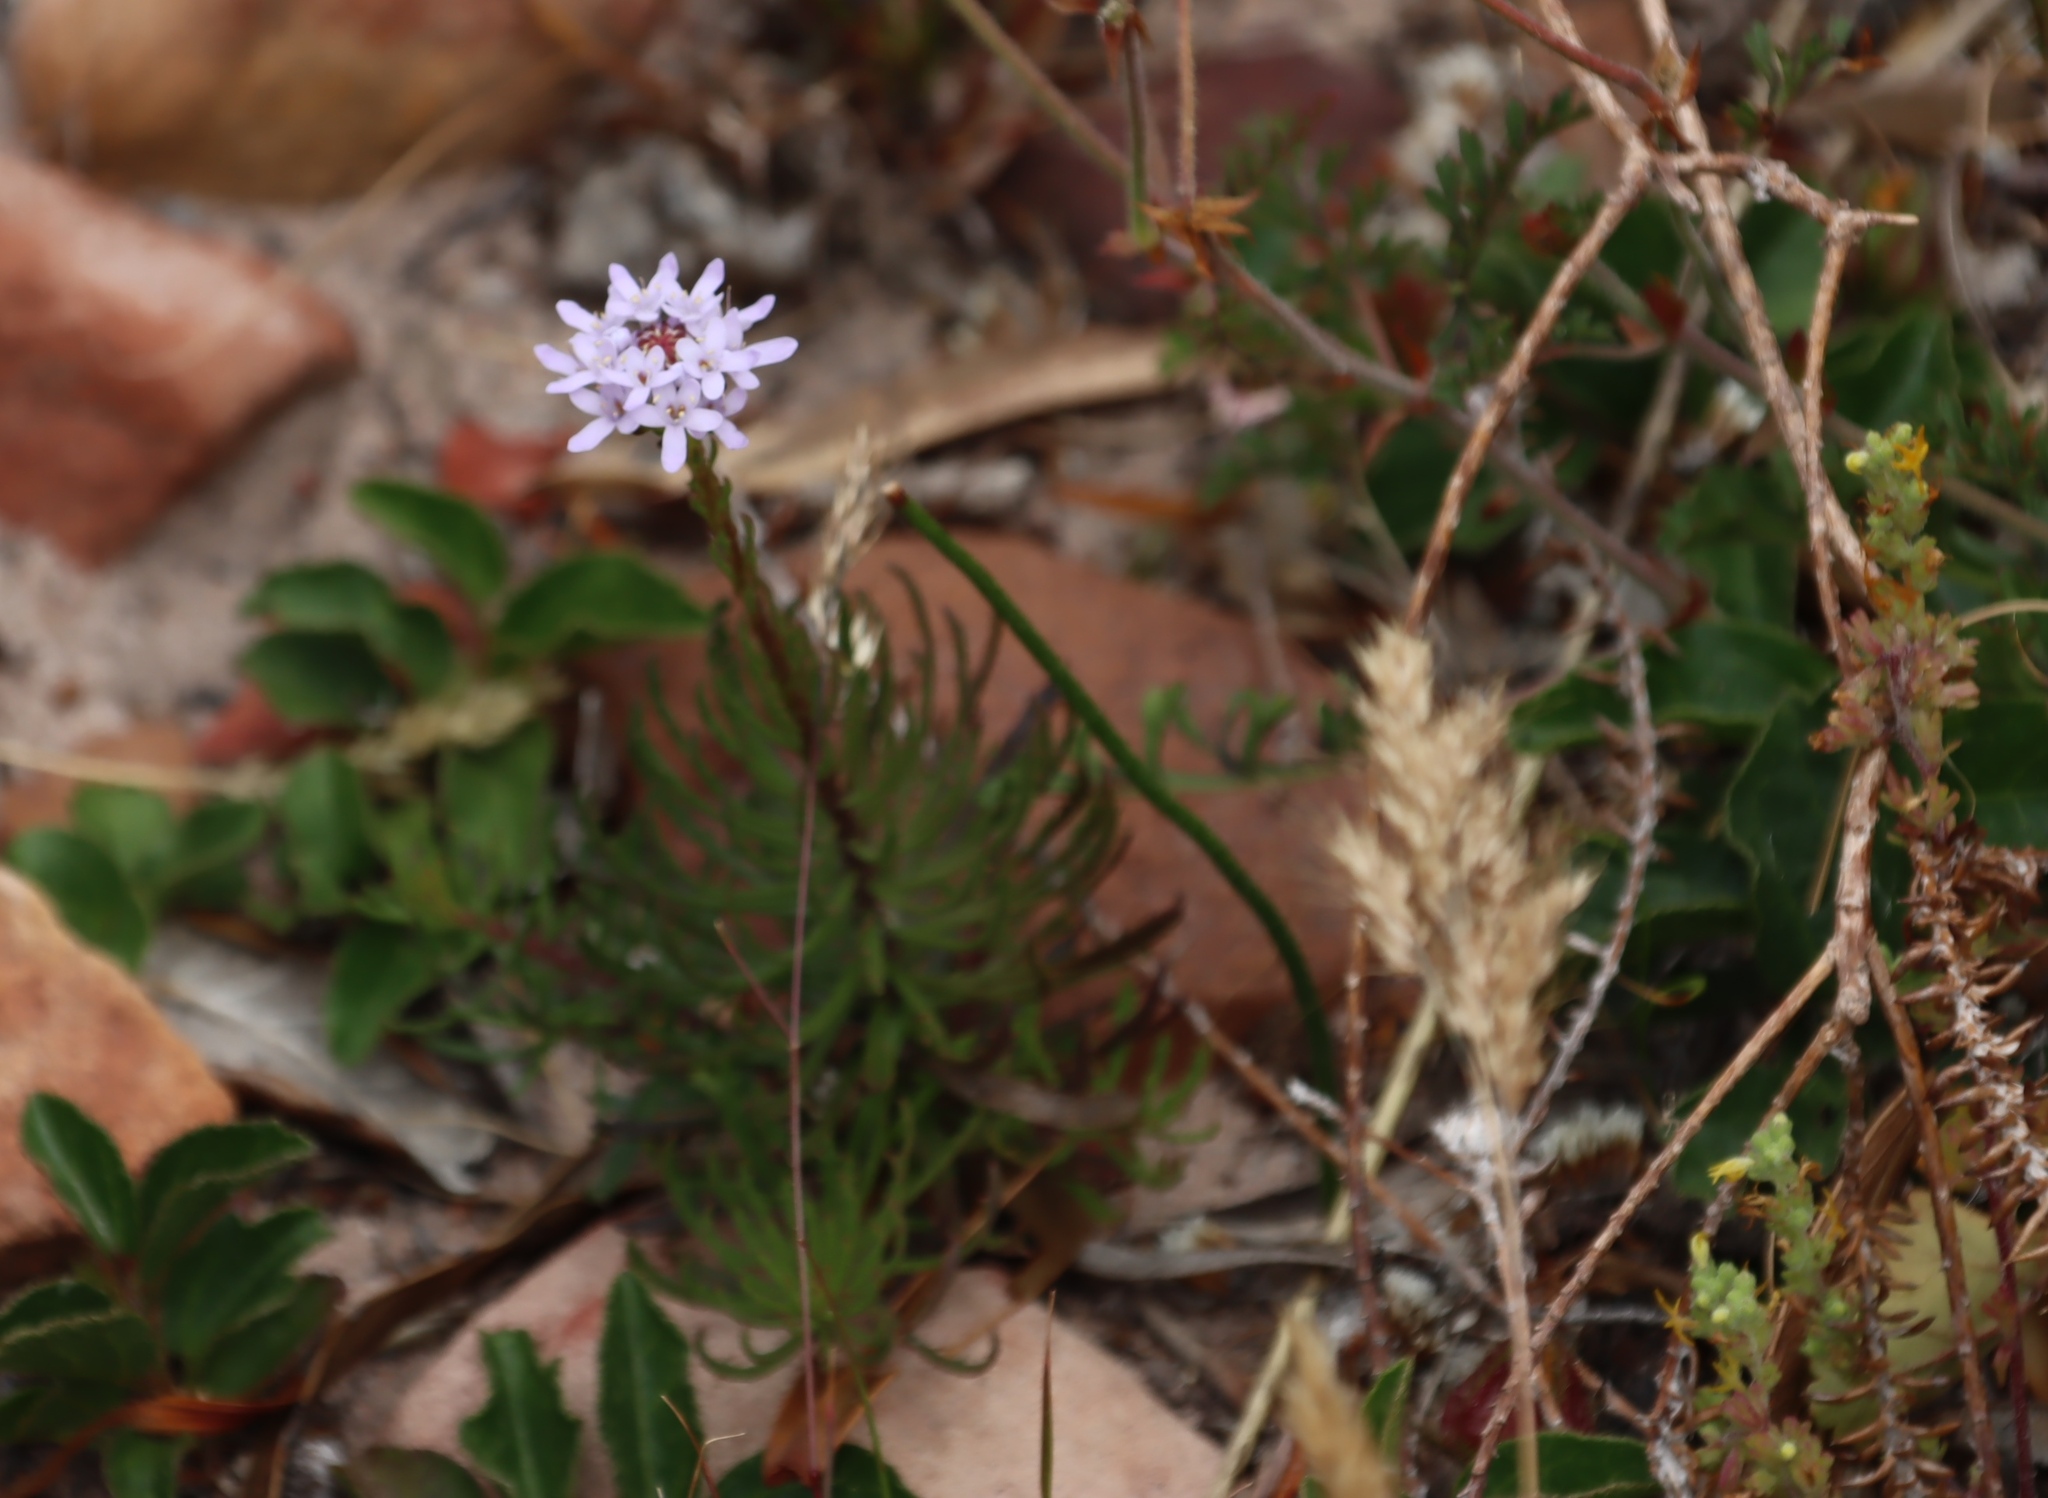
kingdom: Plantae
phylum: Tracheophyta
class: Magnoliopsida
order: Lamiales
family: Scrophulariaceae
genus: Pseudoselago
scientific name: Pseudoselago spuria
